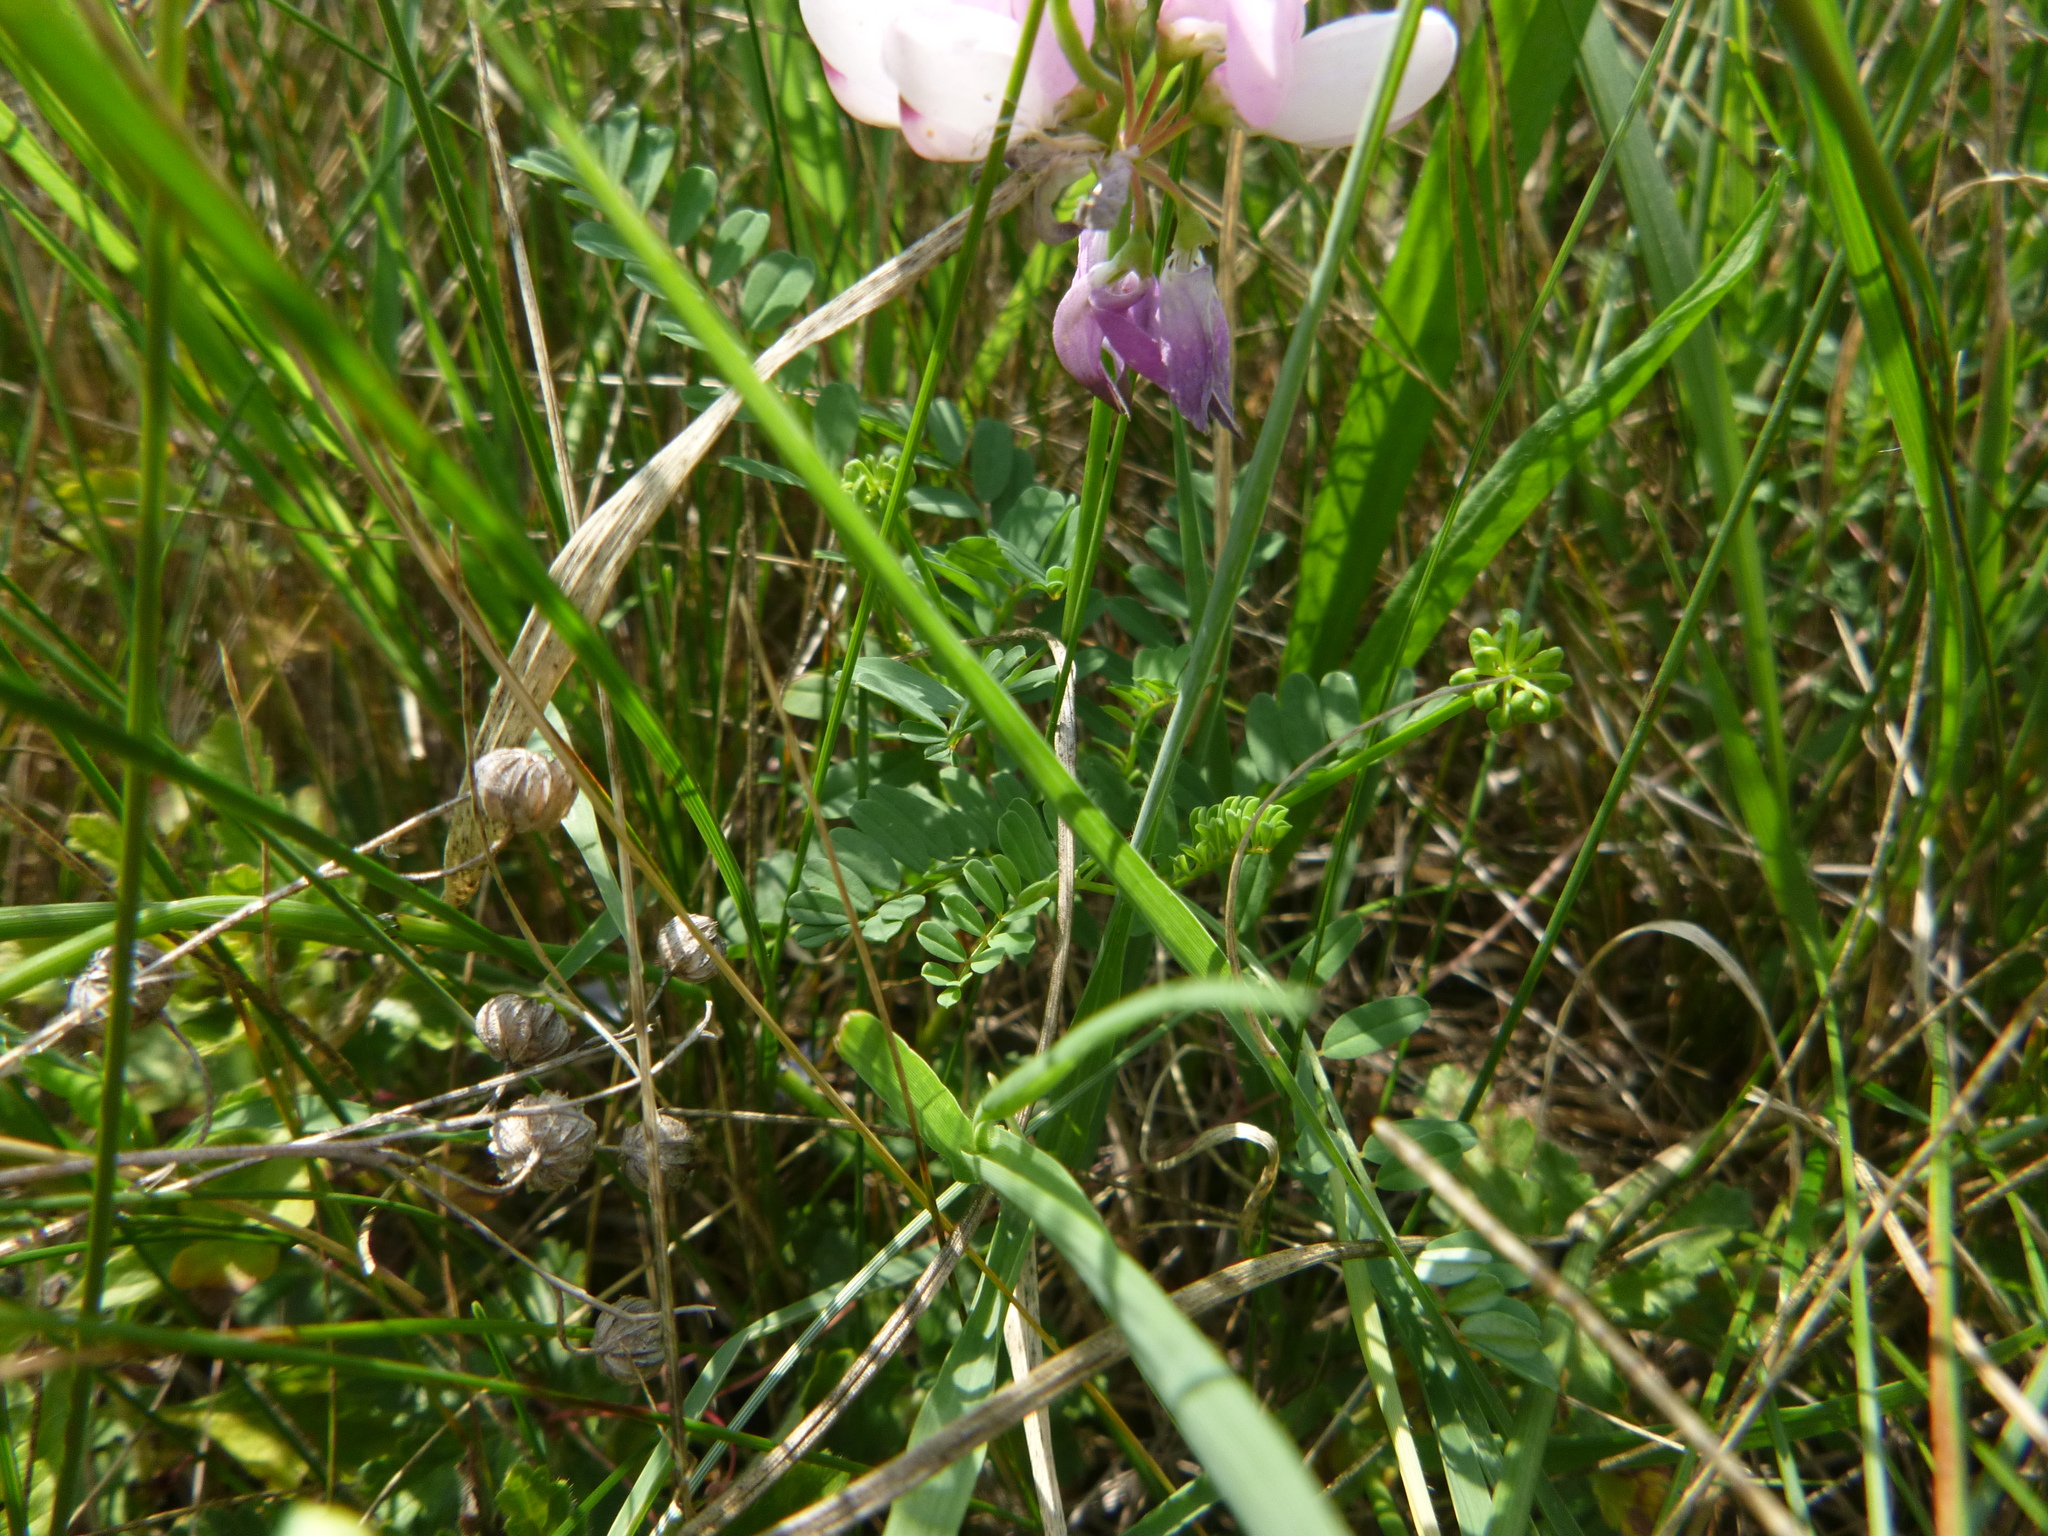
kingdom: Plantae
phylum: Tracheophyta
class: Magnoliopsida
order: Fabales
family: Fabaceae
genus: Coronilla
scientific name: Coronilla varia
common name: Crownvetch
